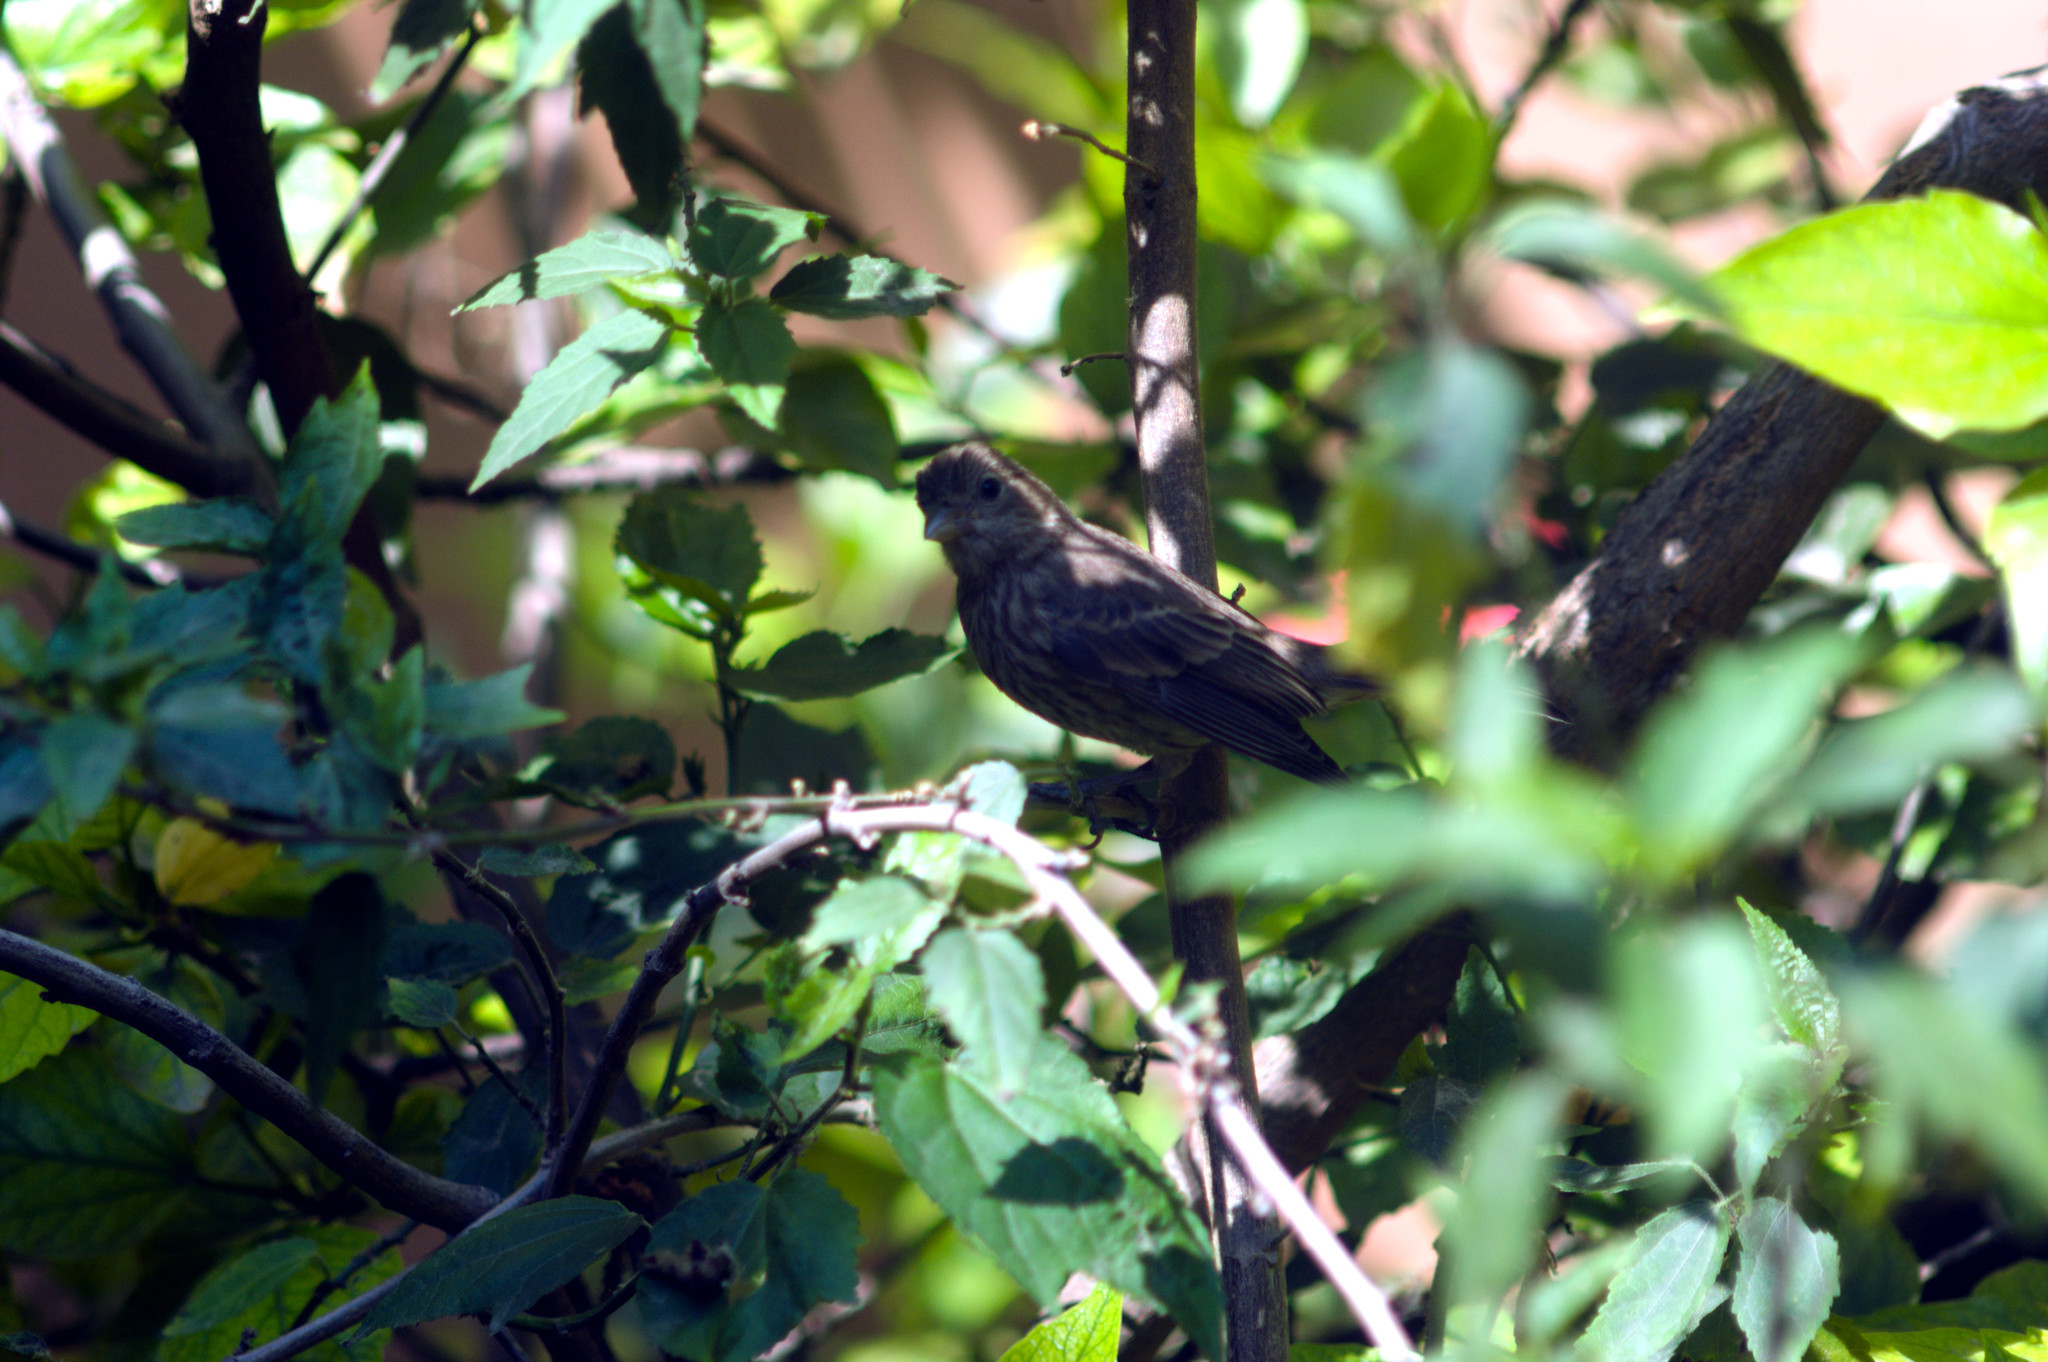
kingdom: Animalia
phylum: Chordata
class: Aves
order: Passeriformes
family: Fringillidae
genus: Haemorhous
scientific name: Haemorhous mexicanus
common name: House finch
